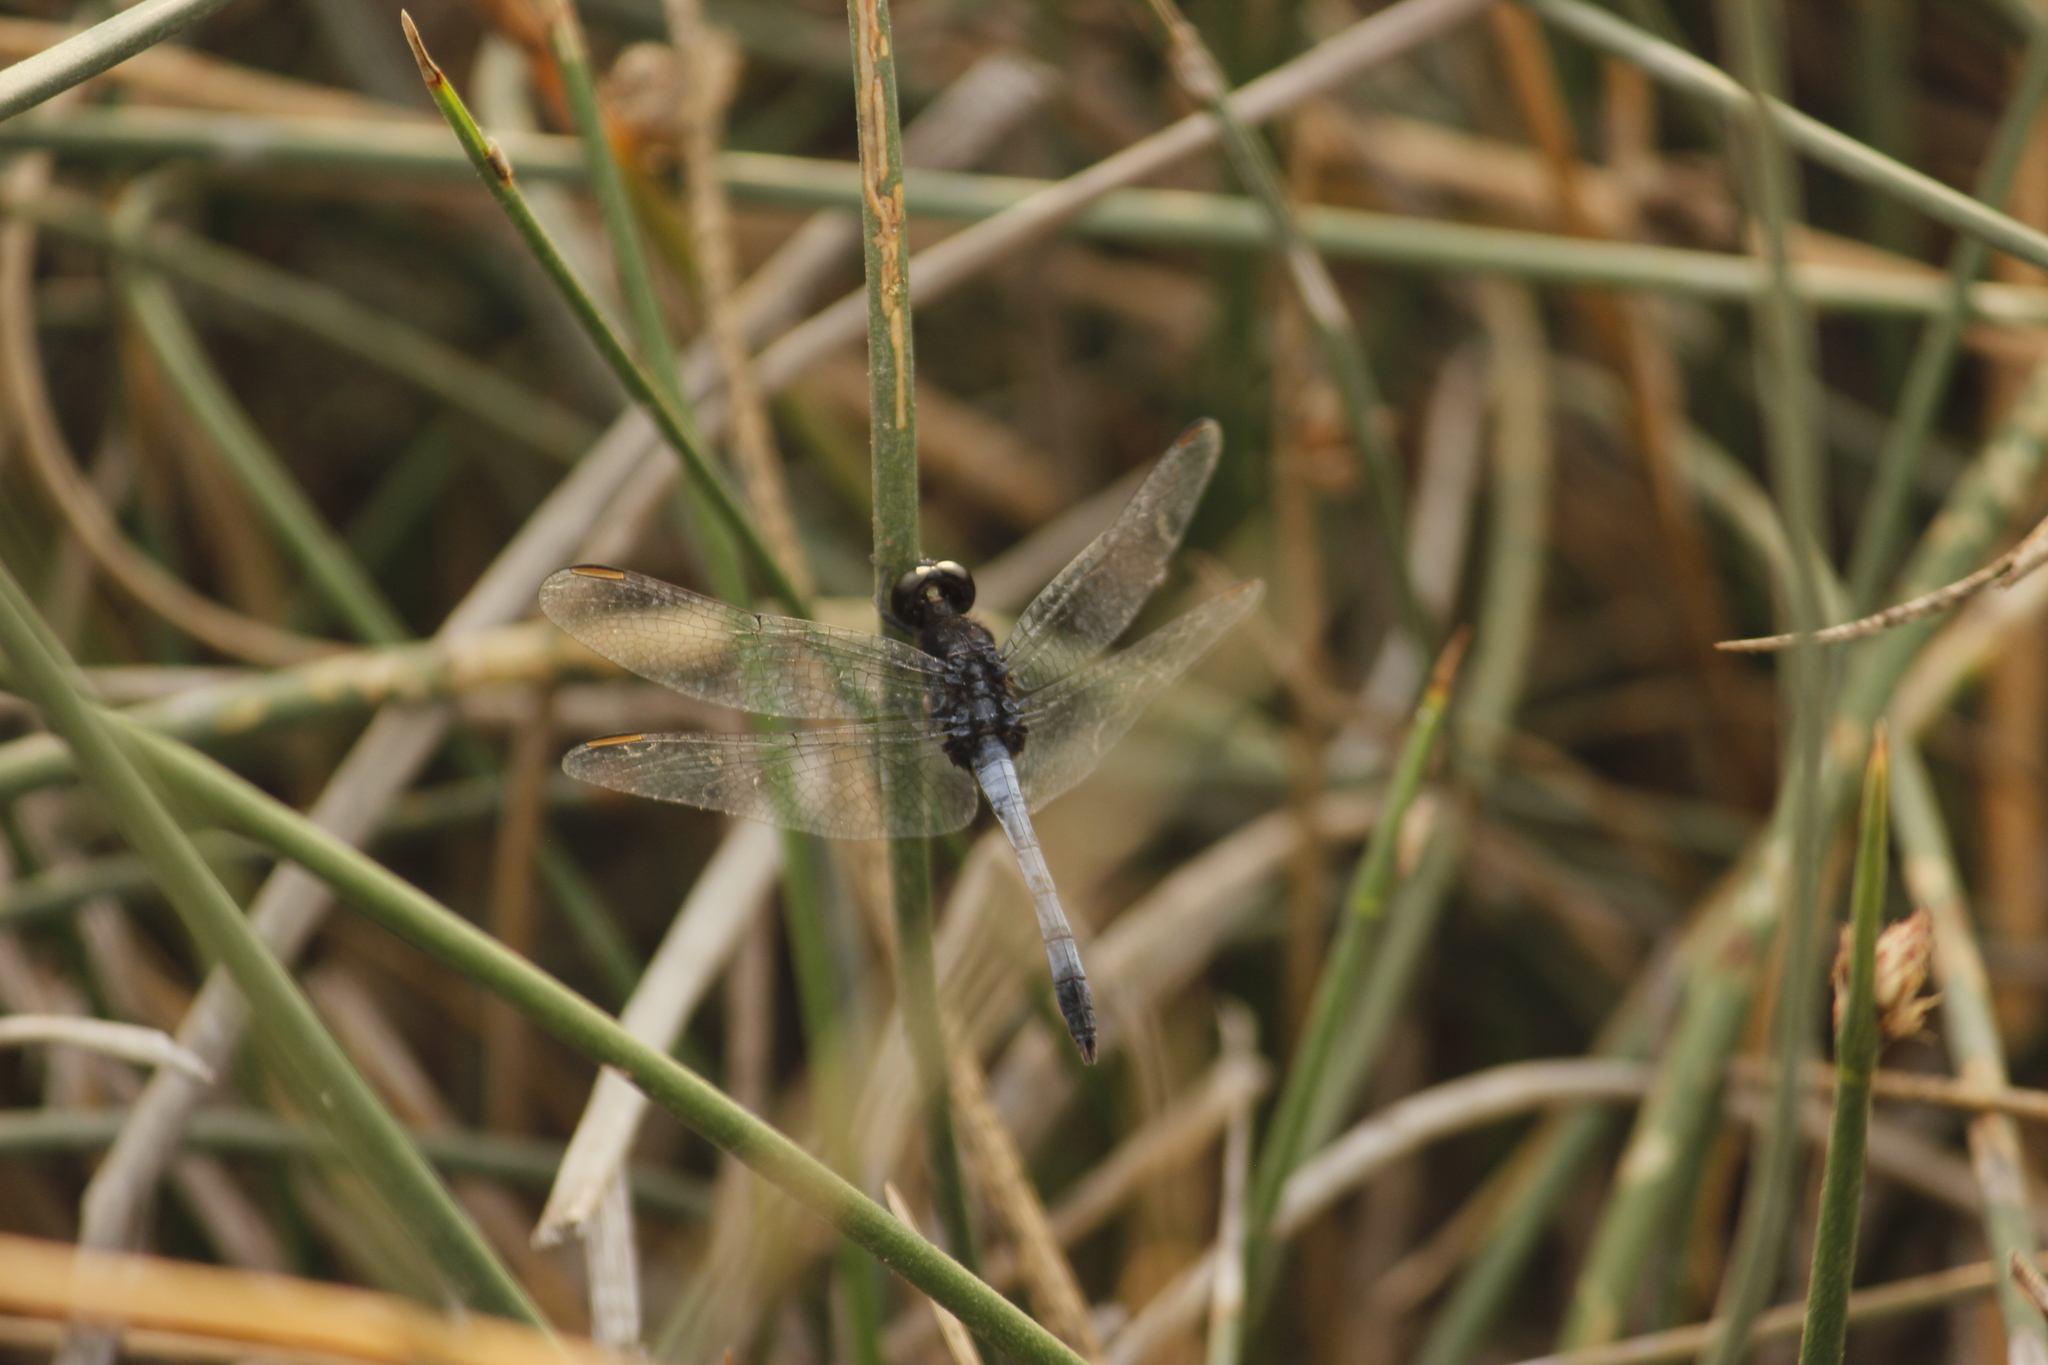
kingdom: Animalia
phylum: Arthropoda
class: Insecta
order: Odonata
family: Libellulidae
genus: Erythrodiplax
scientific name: Erythrodiplax cleopatra
